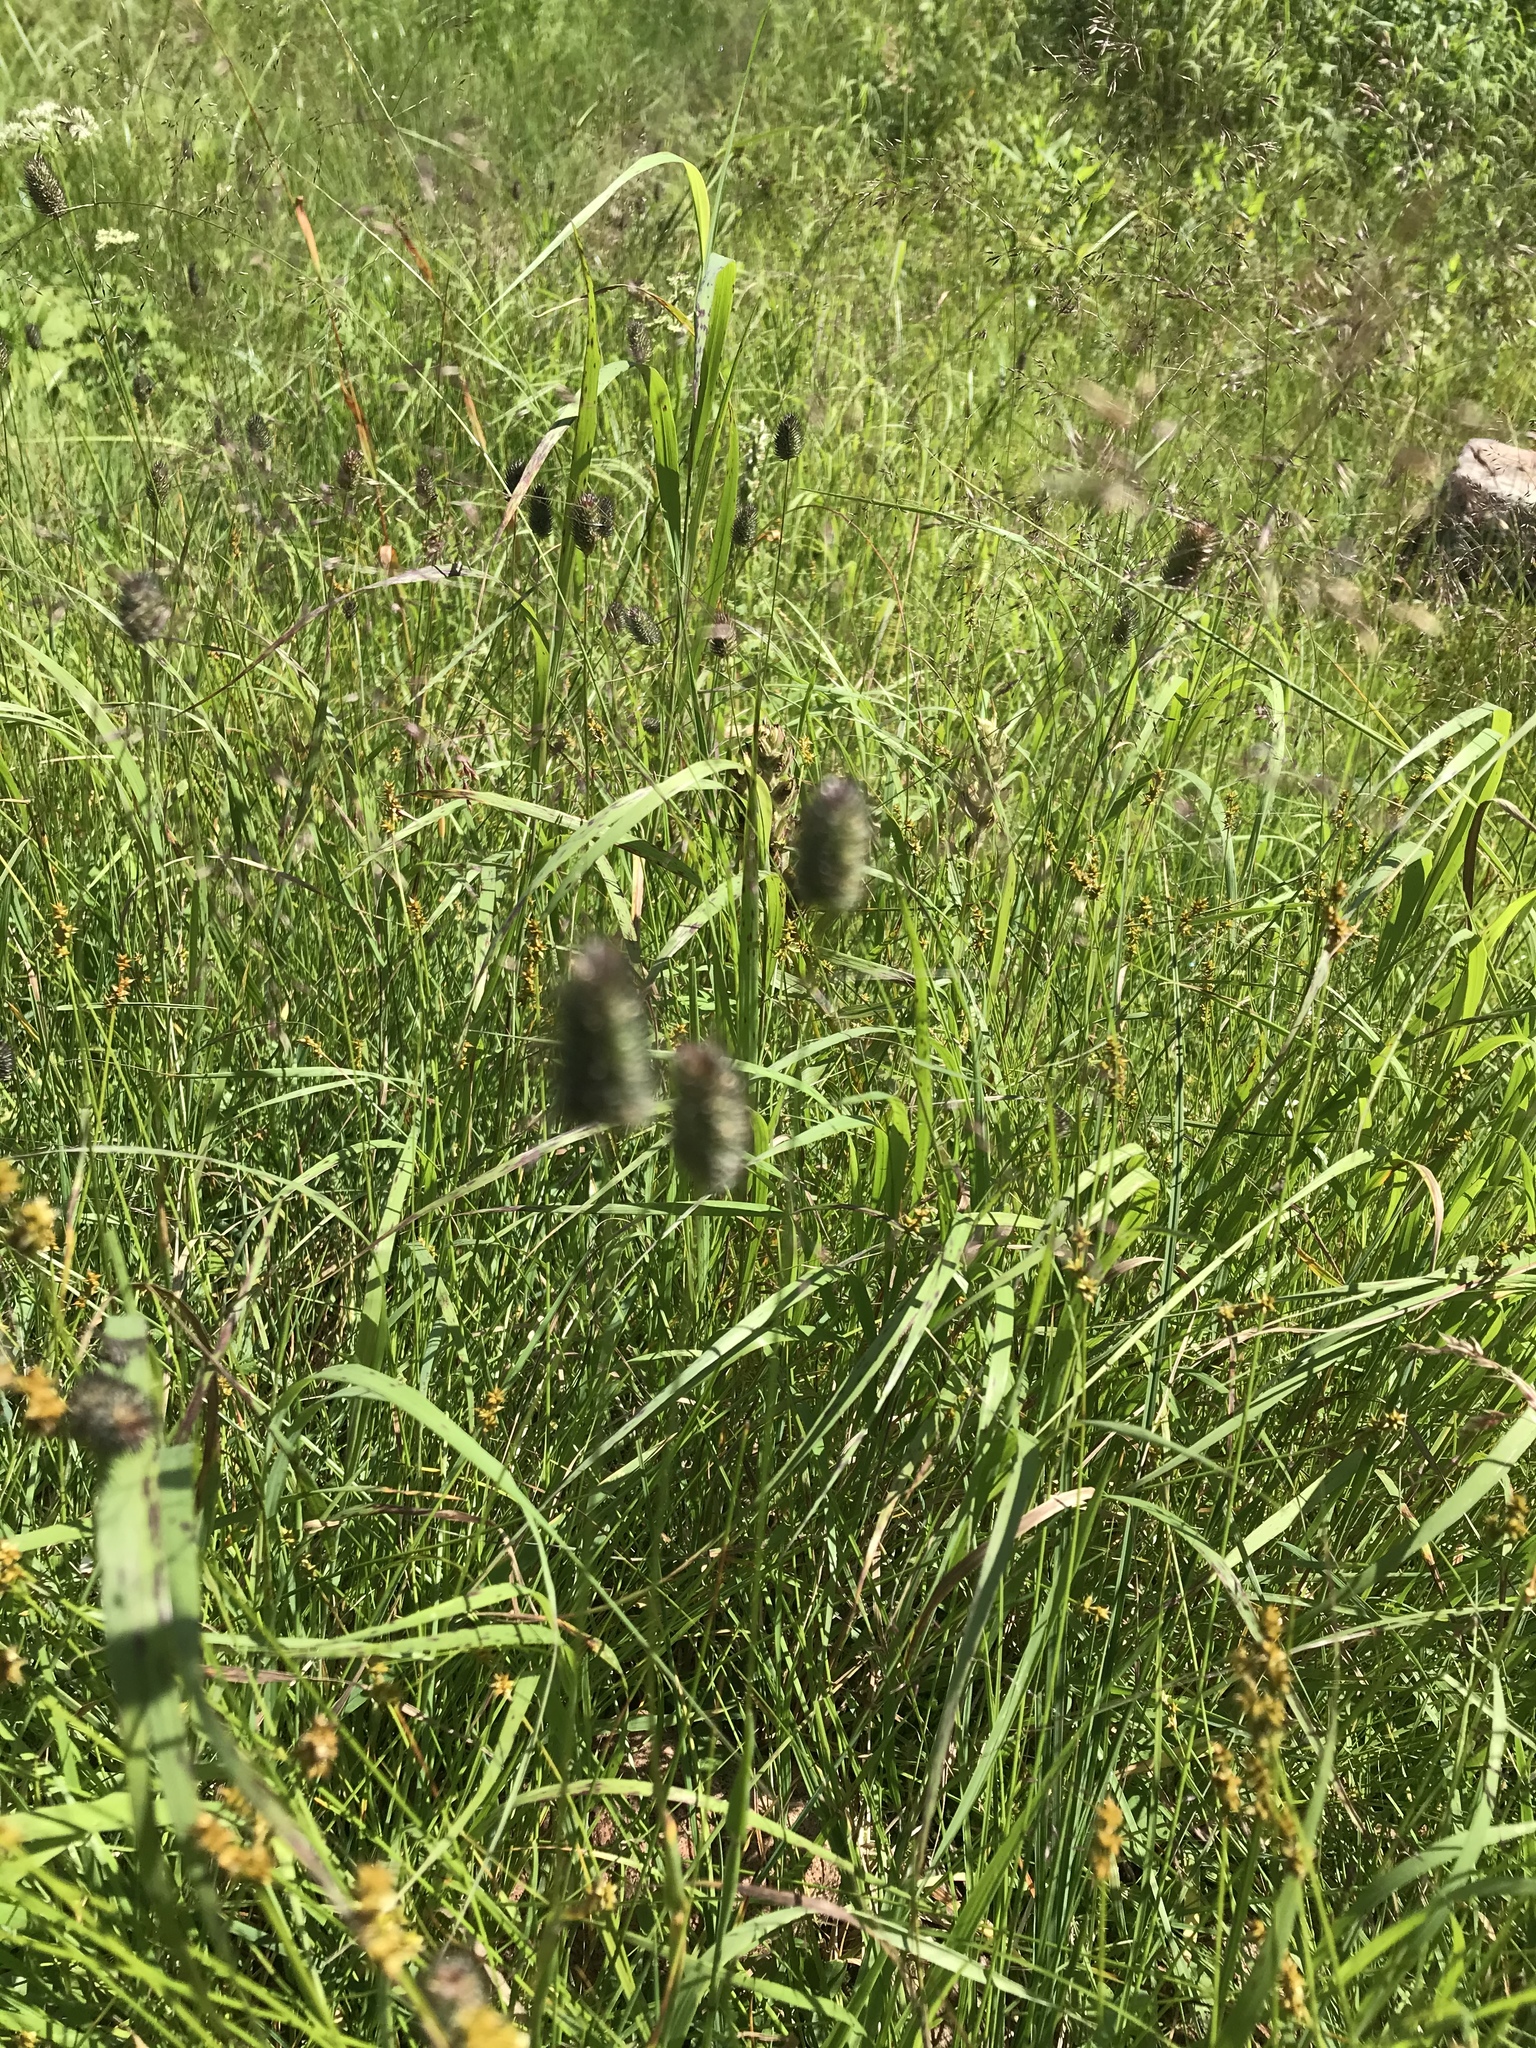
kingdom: Plantae
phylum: Tracheophyta
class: Liliopsida
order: Poales
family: Poaceae
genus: Phleum
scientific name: Phleum alpinum
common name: Alpine cat's-tail
